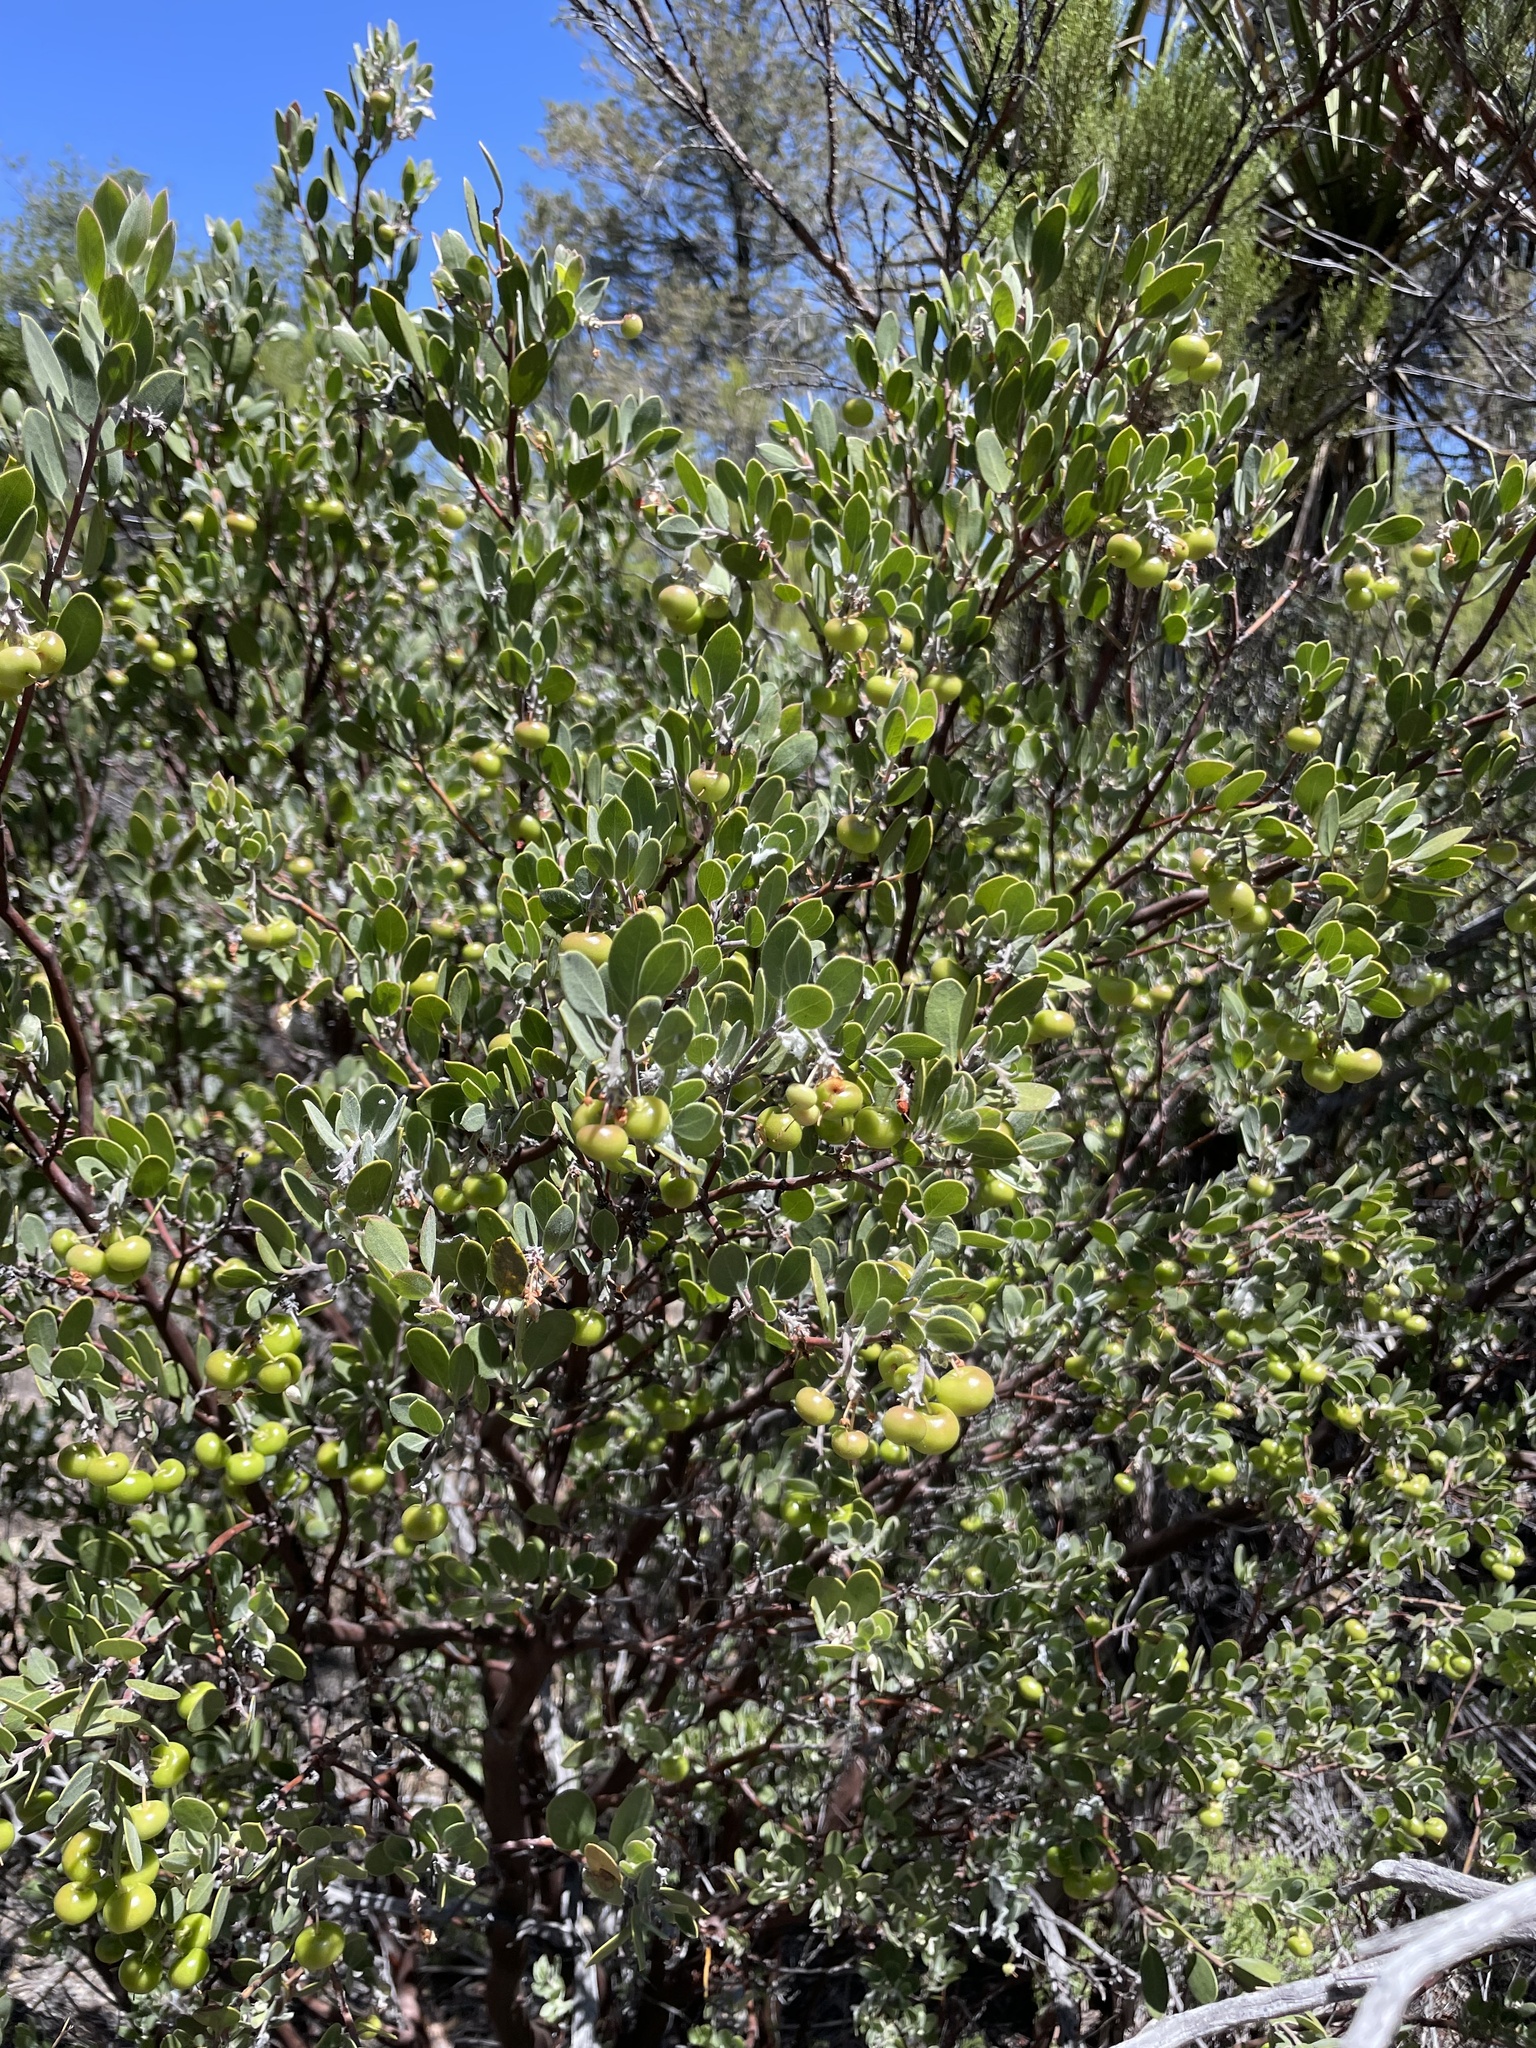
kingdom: Plantae
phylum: Tracheophyta
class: Magnoliopsida
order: Ericales
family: Ericaceae
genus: Arctostaphylos
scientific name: Arctostaphylos pungens
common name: Mexican manzanita
